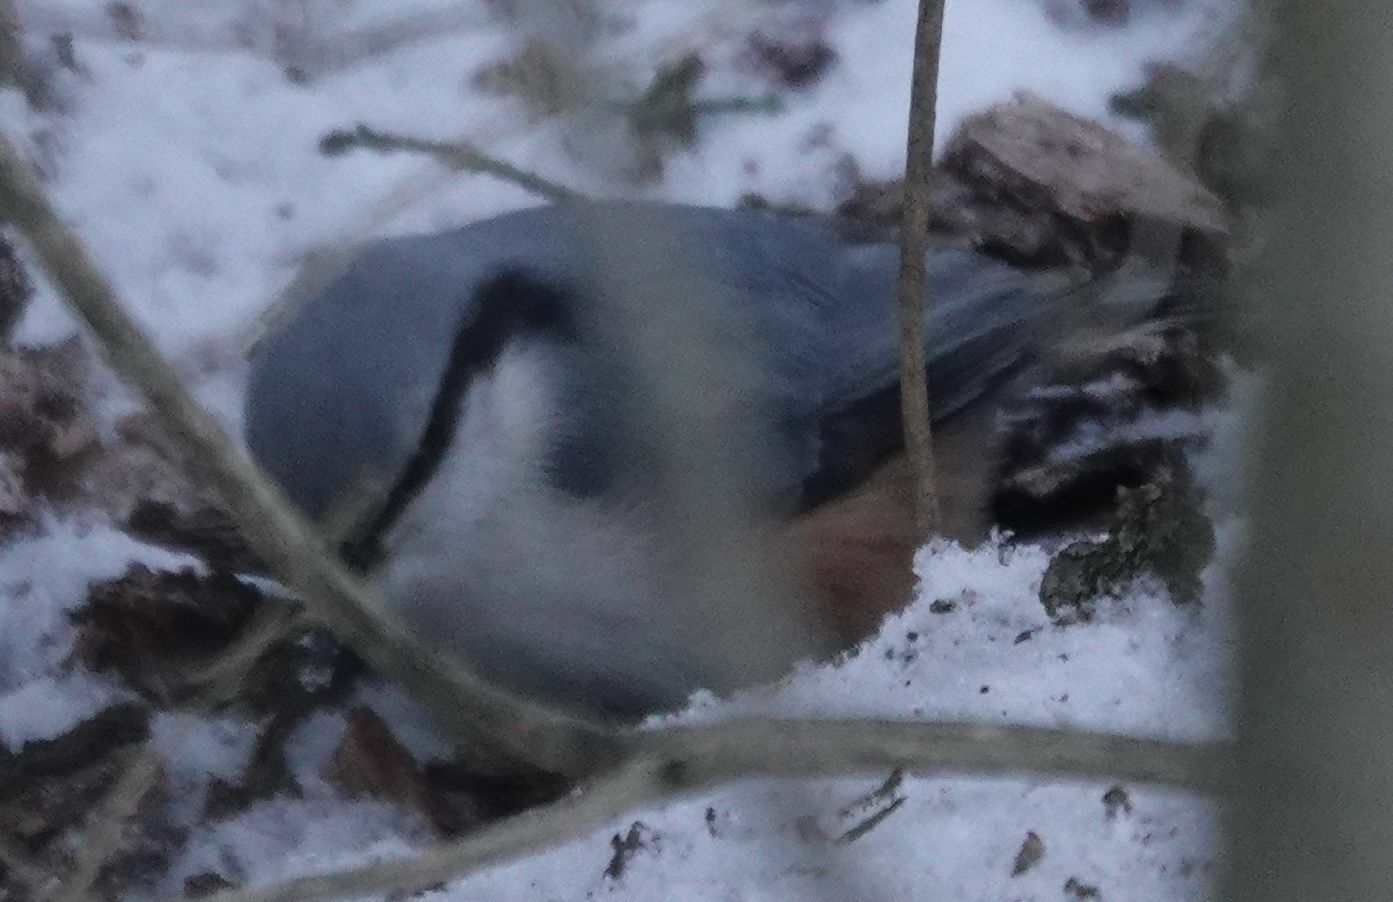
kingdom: Animalia
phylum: Chordata
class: Aves
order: Passeriformes
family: Sittidae
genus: Sitta
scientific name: Sitta europaea
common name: Eurasian nuthatch
